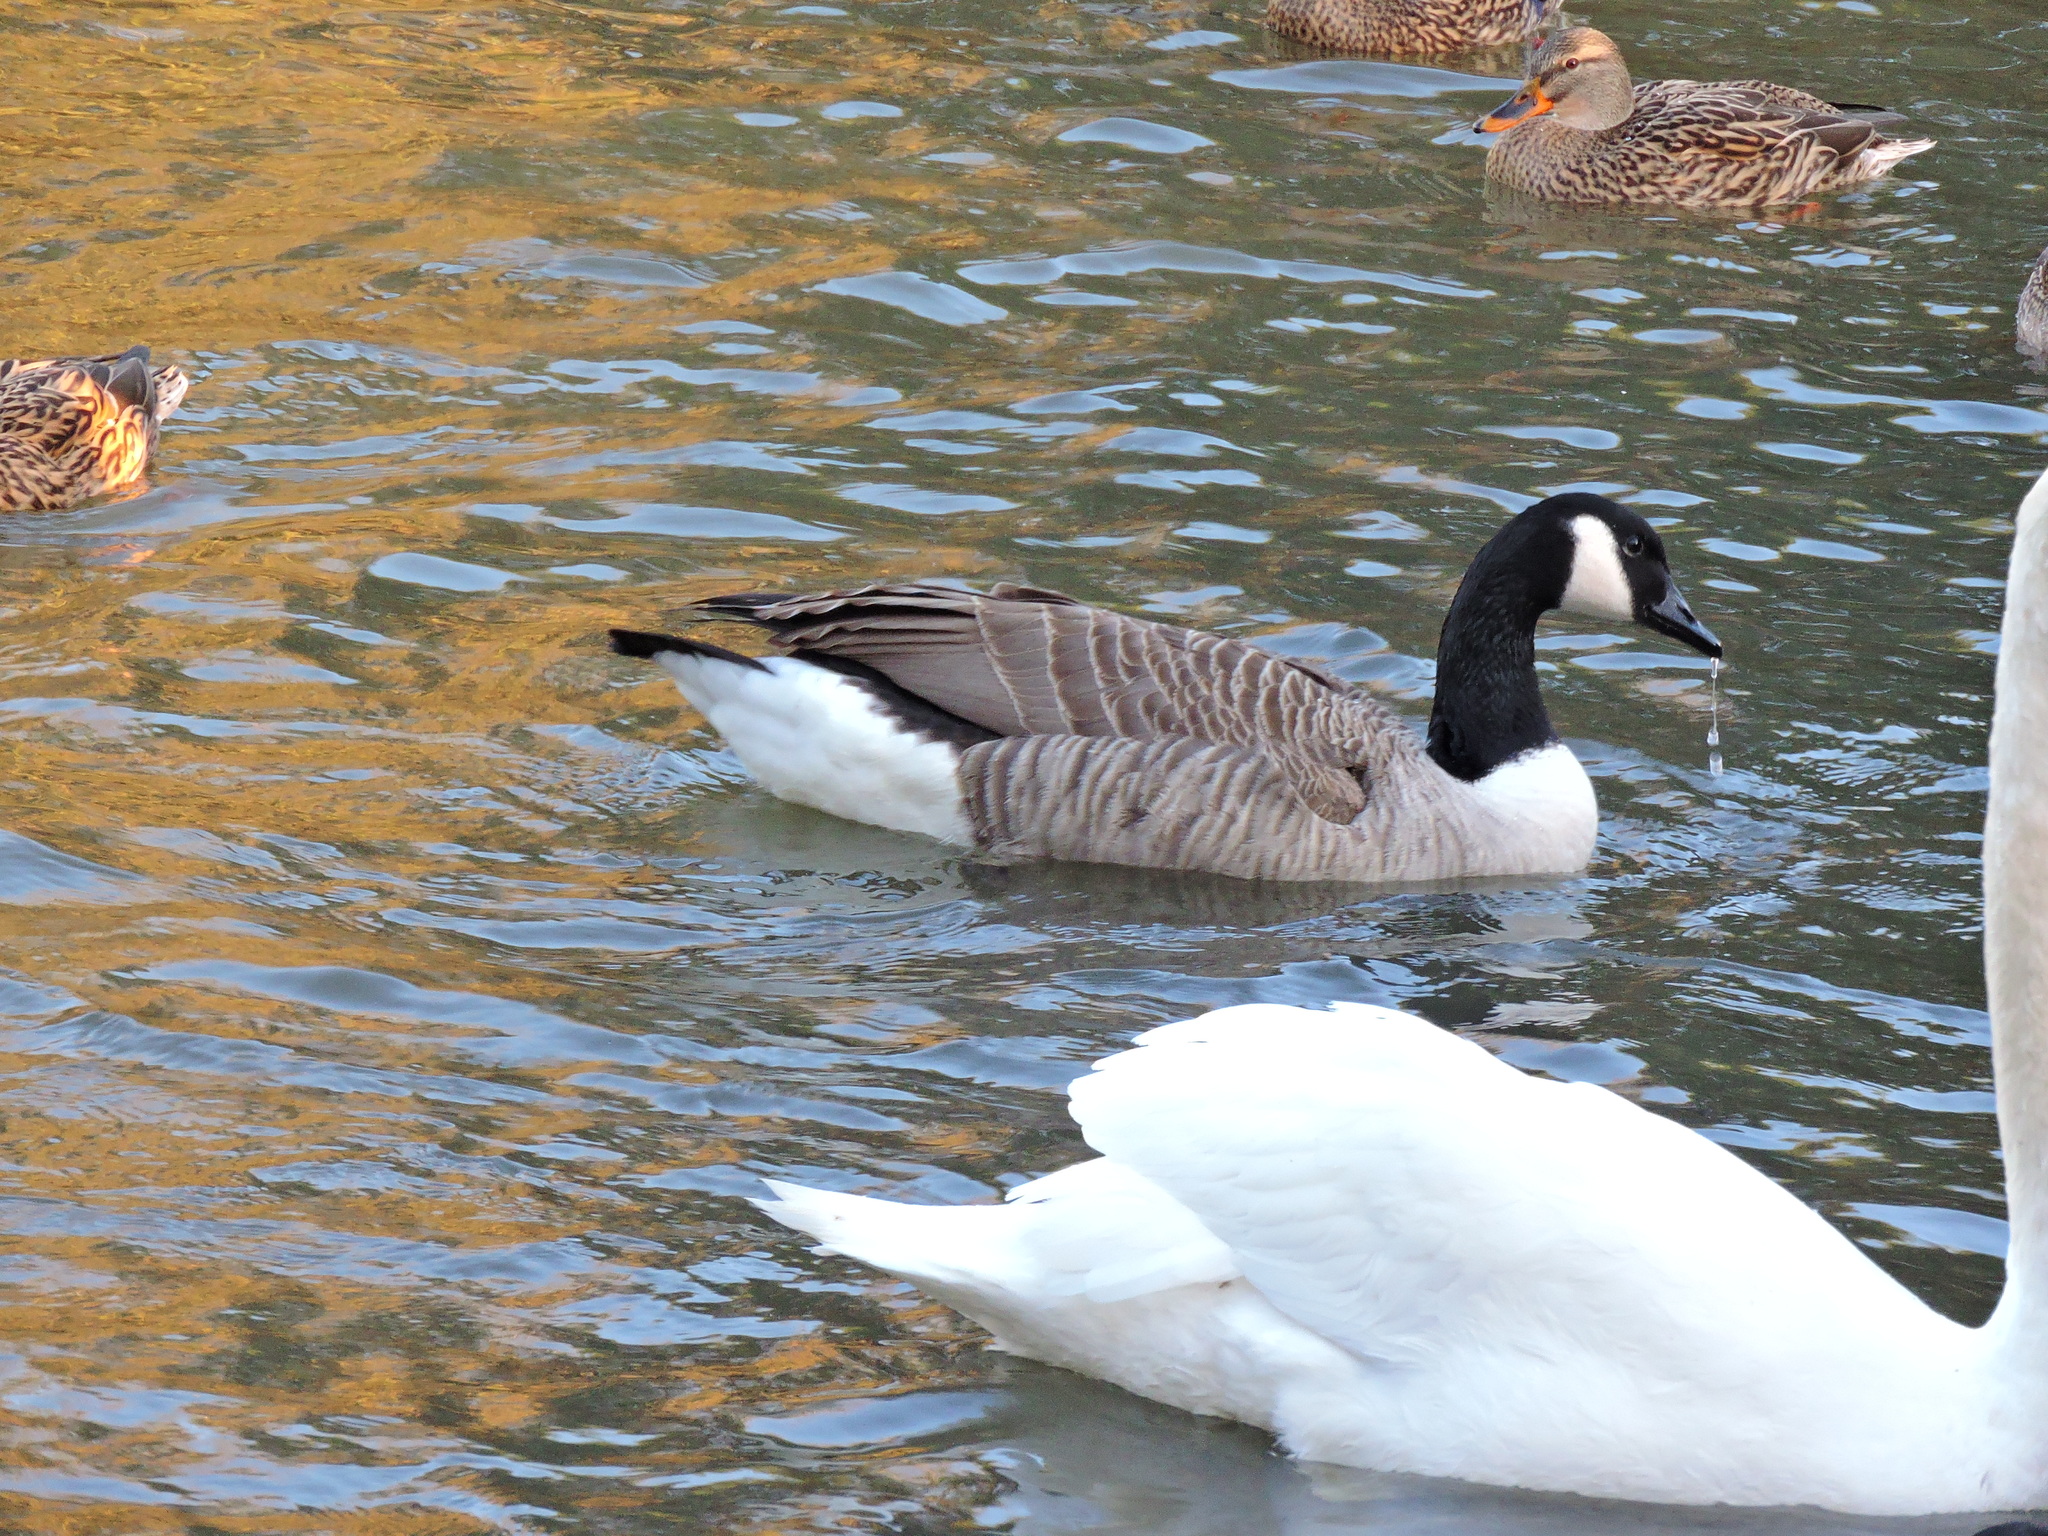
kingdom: Animalia
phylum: Chordata
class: Aves
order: Anseriformes
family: Anatidae
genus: Branta
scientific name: Branta canadensis
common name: Canada goose
